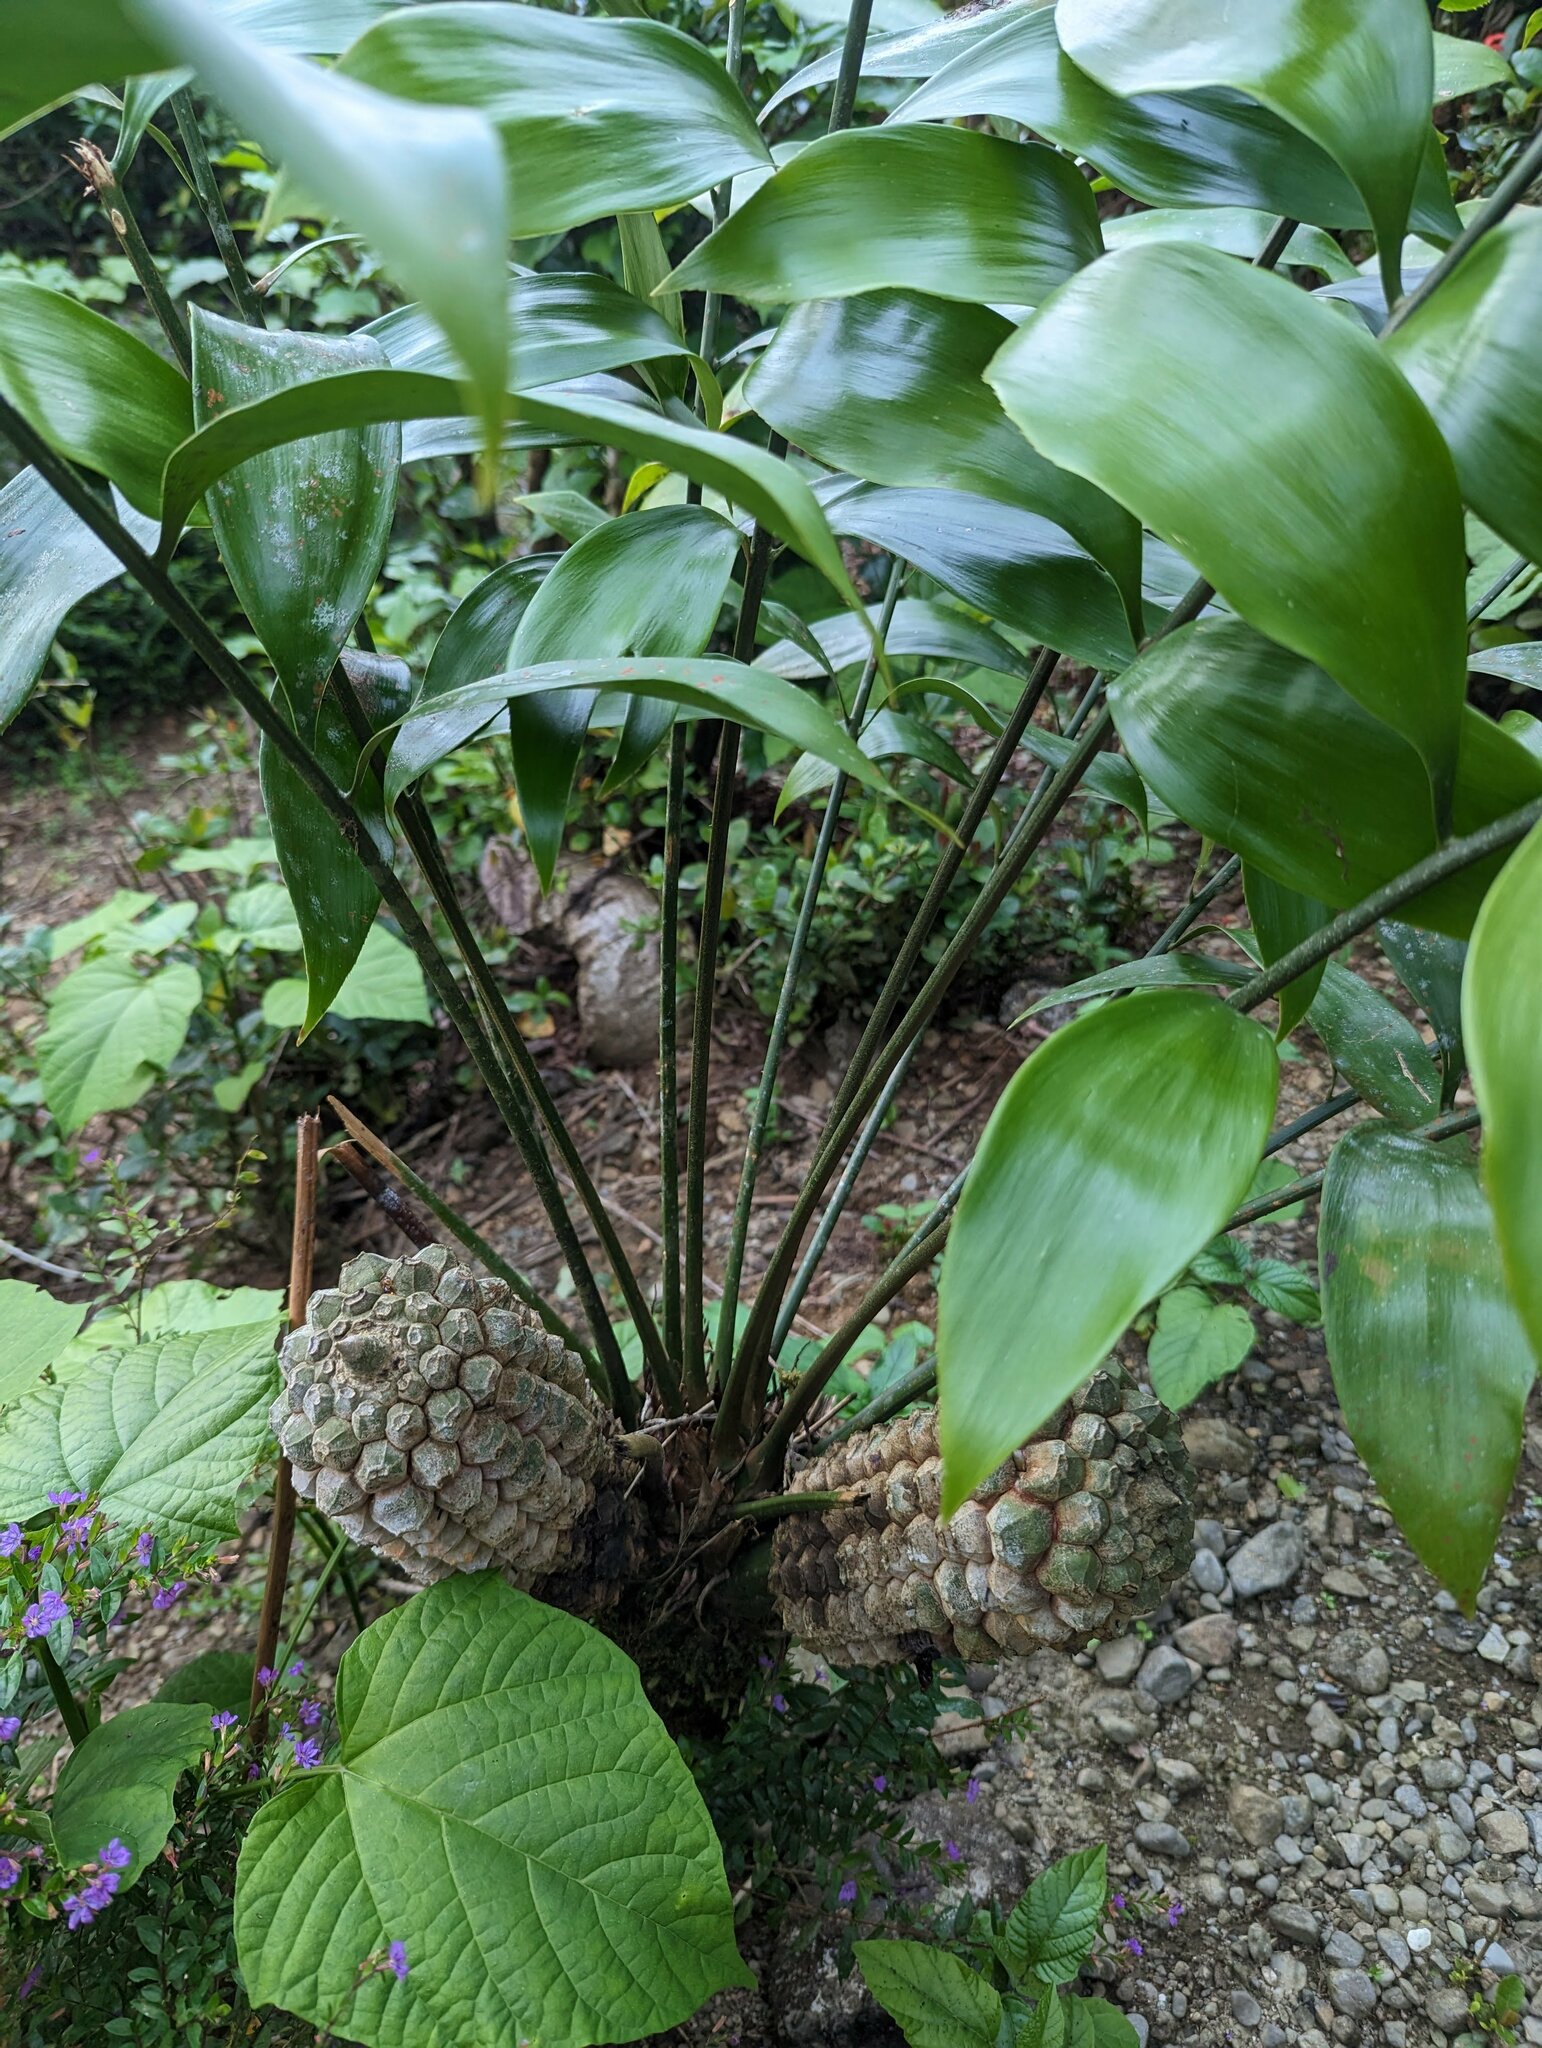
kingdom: Plantae
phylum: Tracheophyta
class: Cycadopsida
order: Cycadales
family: Zamiaceae
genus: Zamia
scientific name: Zamia obliqua
